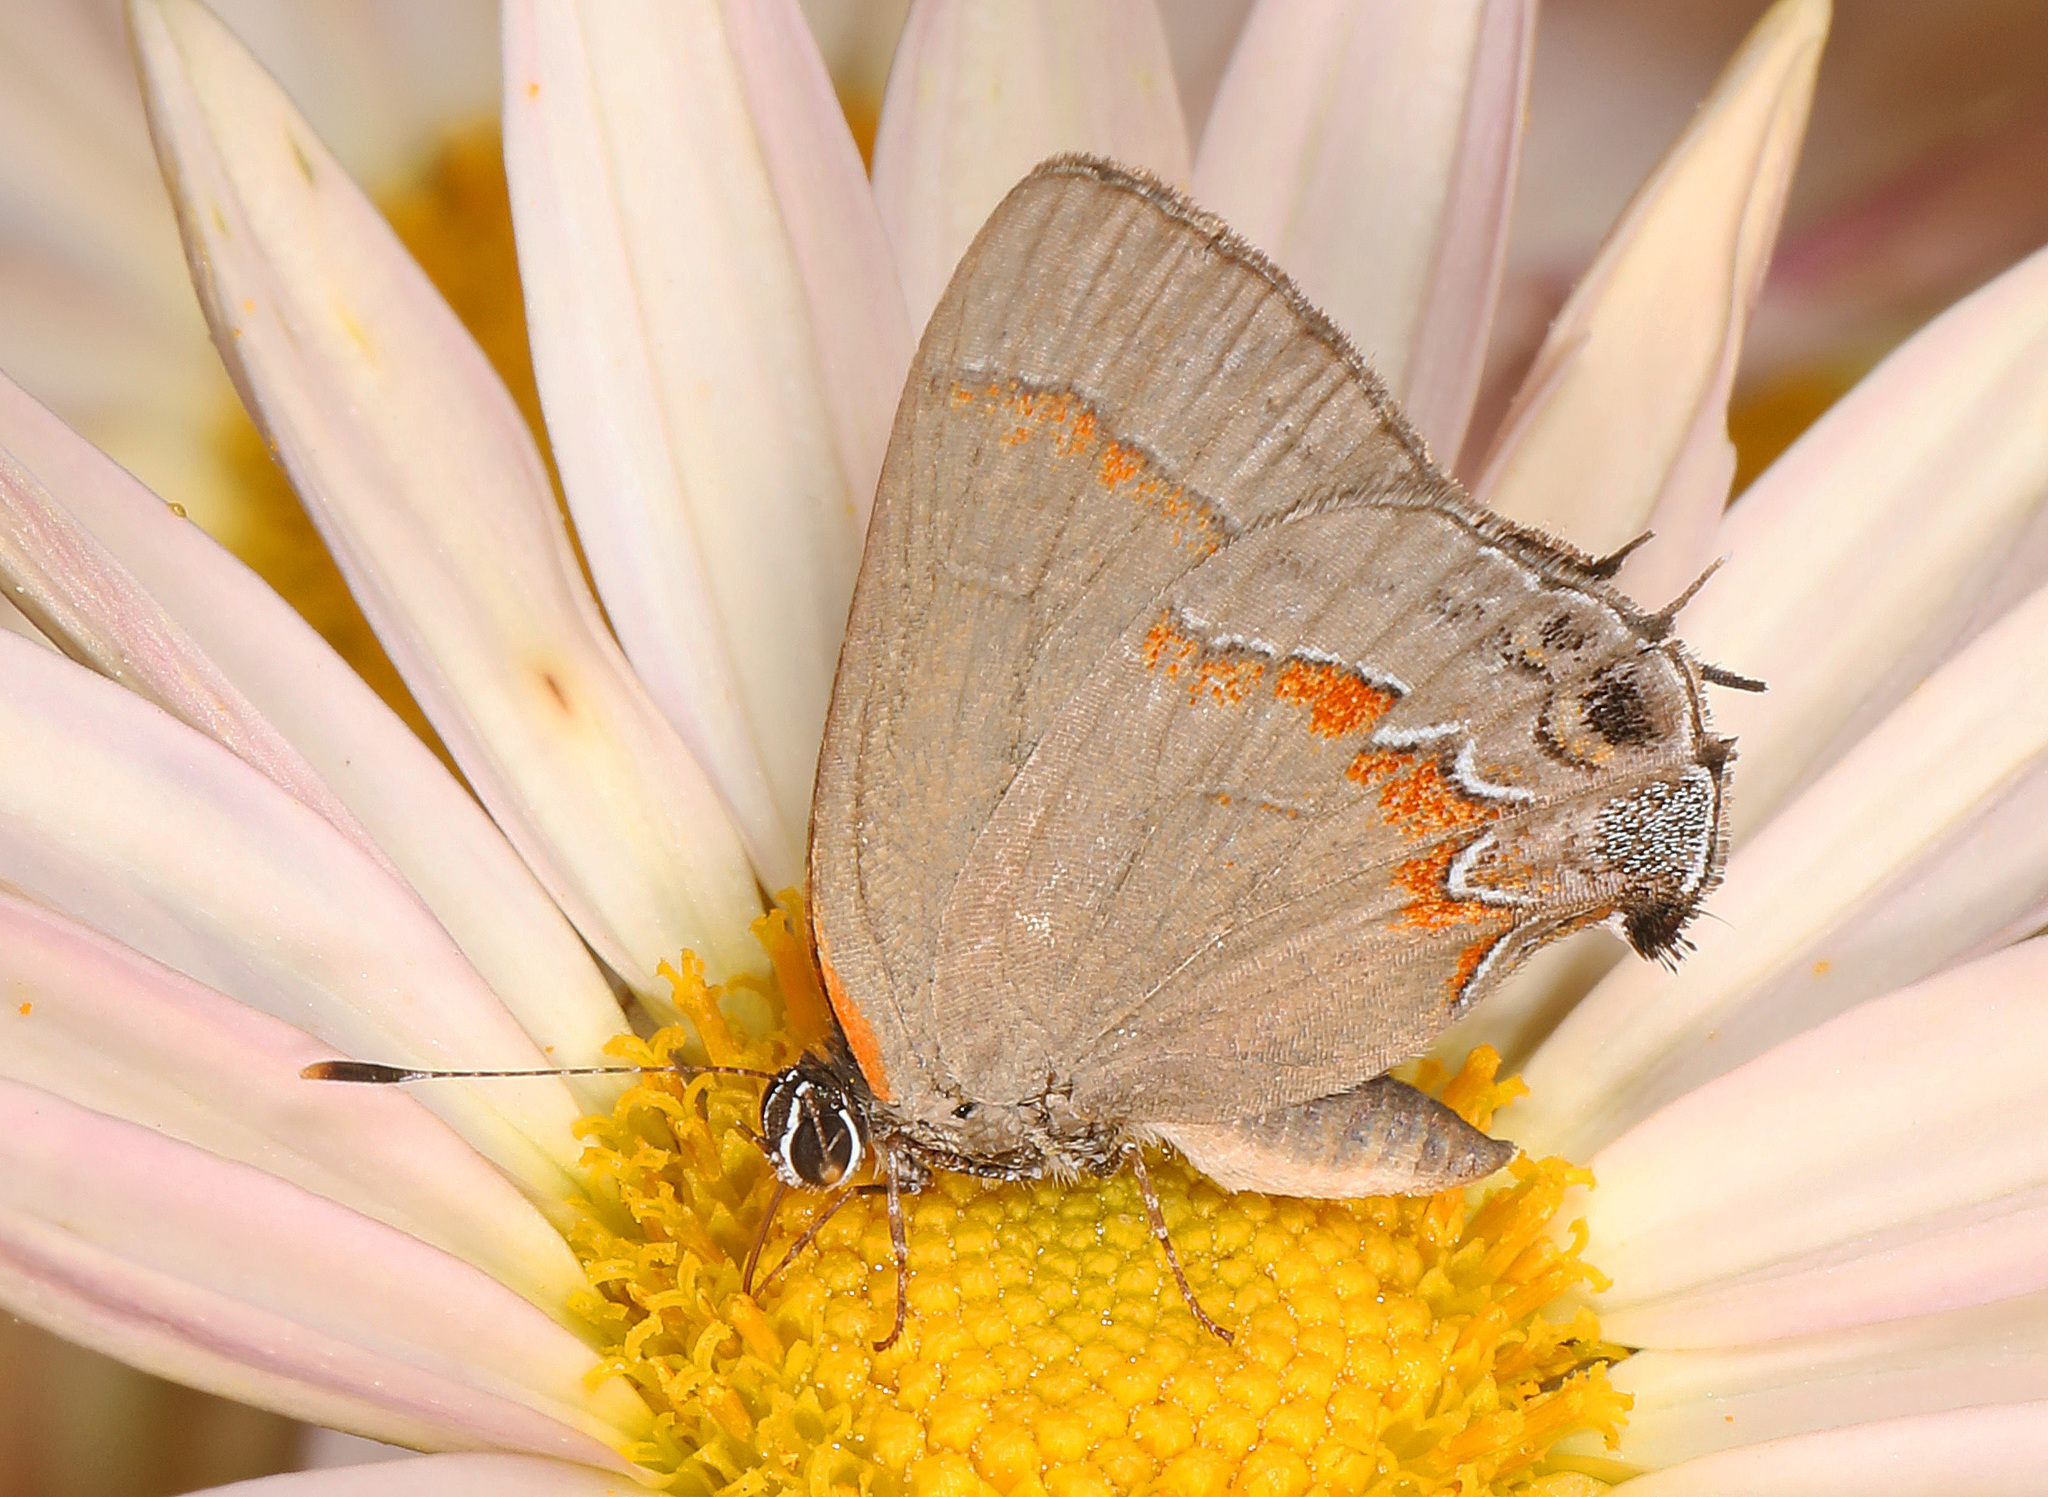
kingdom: Animalia
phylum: Arthropoda
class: Insecta
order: Lepidoptera
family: Lycaenidae
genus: Calycopis
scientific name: Calycopis cecrops
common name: Red-banded hairstreak
